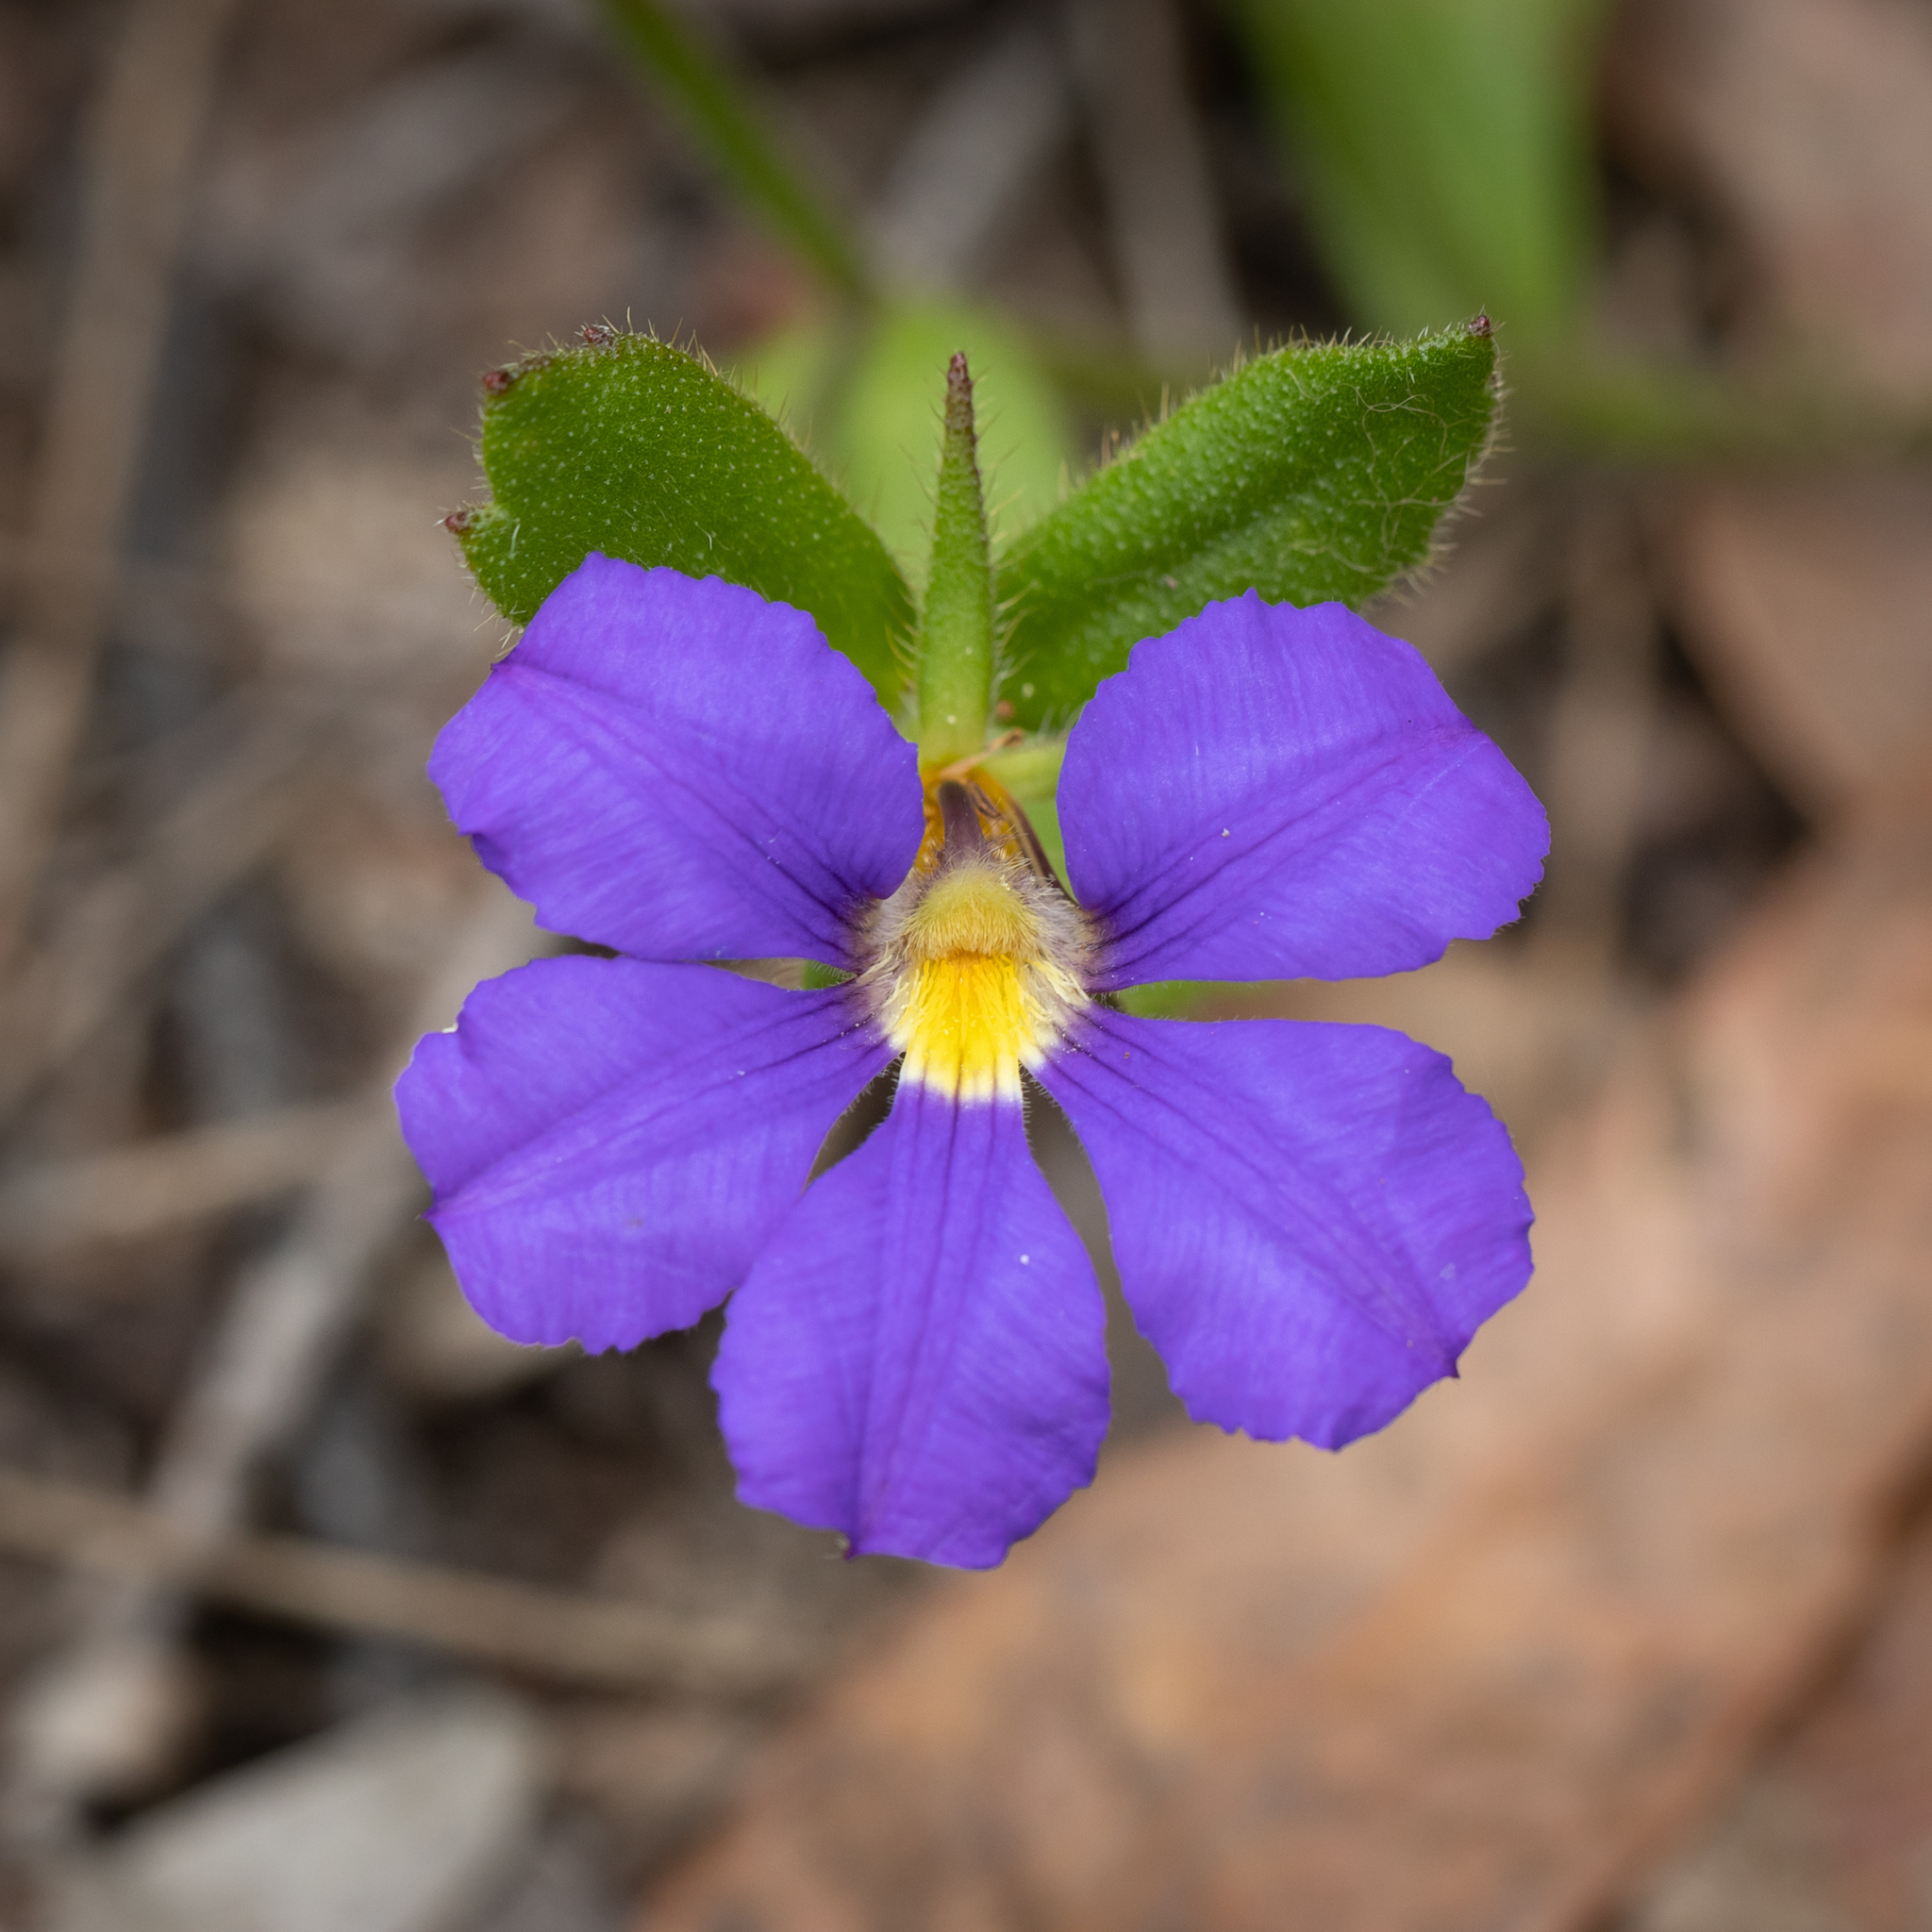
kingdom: Plantae
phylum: Tracheophyta
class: Magnoliopsida
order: Asterales
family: Goodeniaceae
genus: Scaevola
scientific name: Scaevola calliptera
